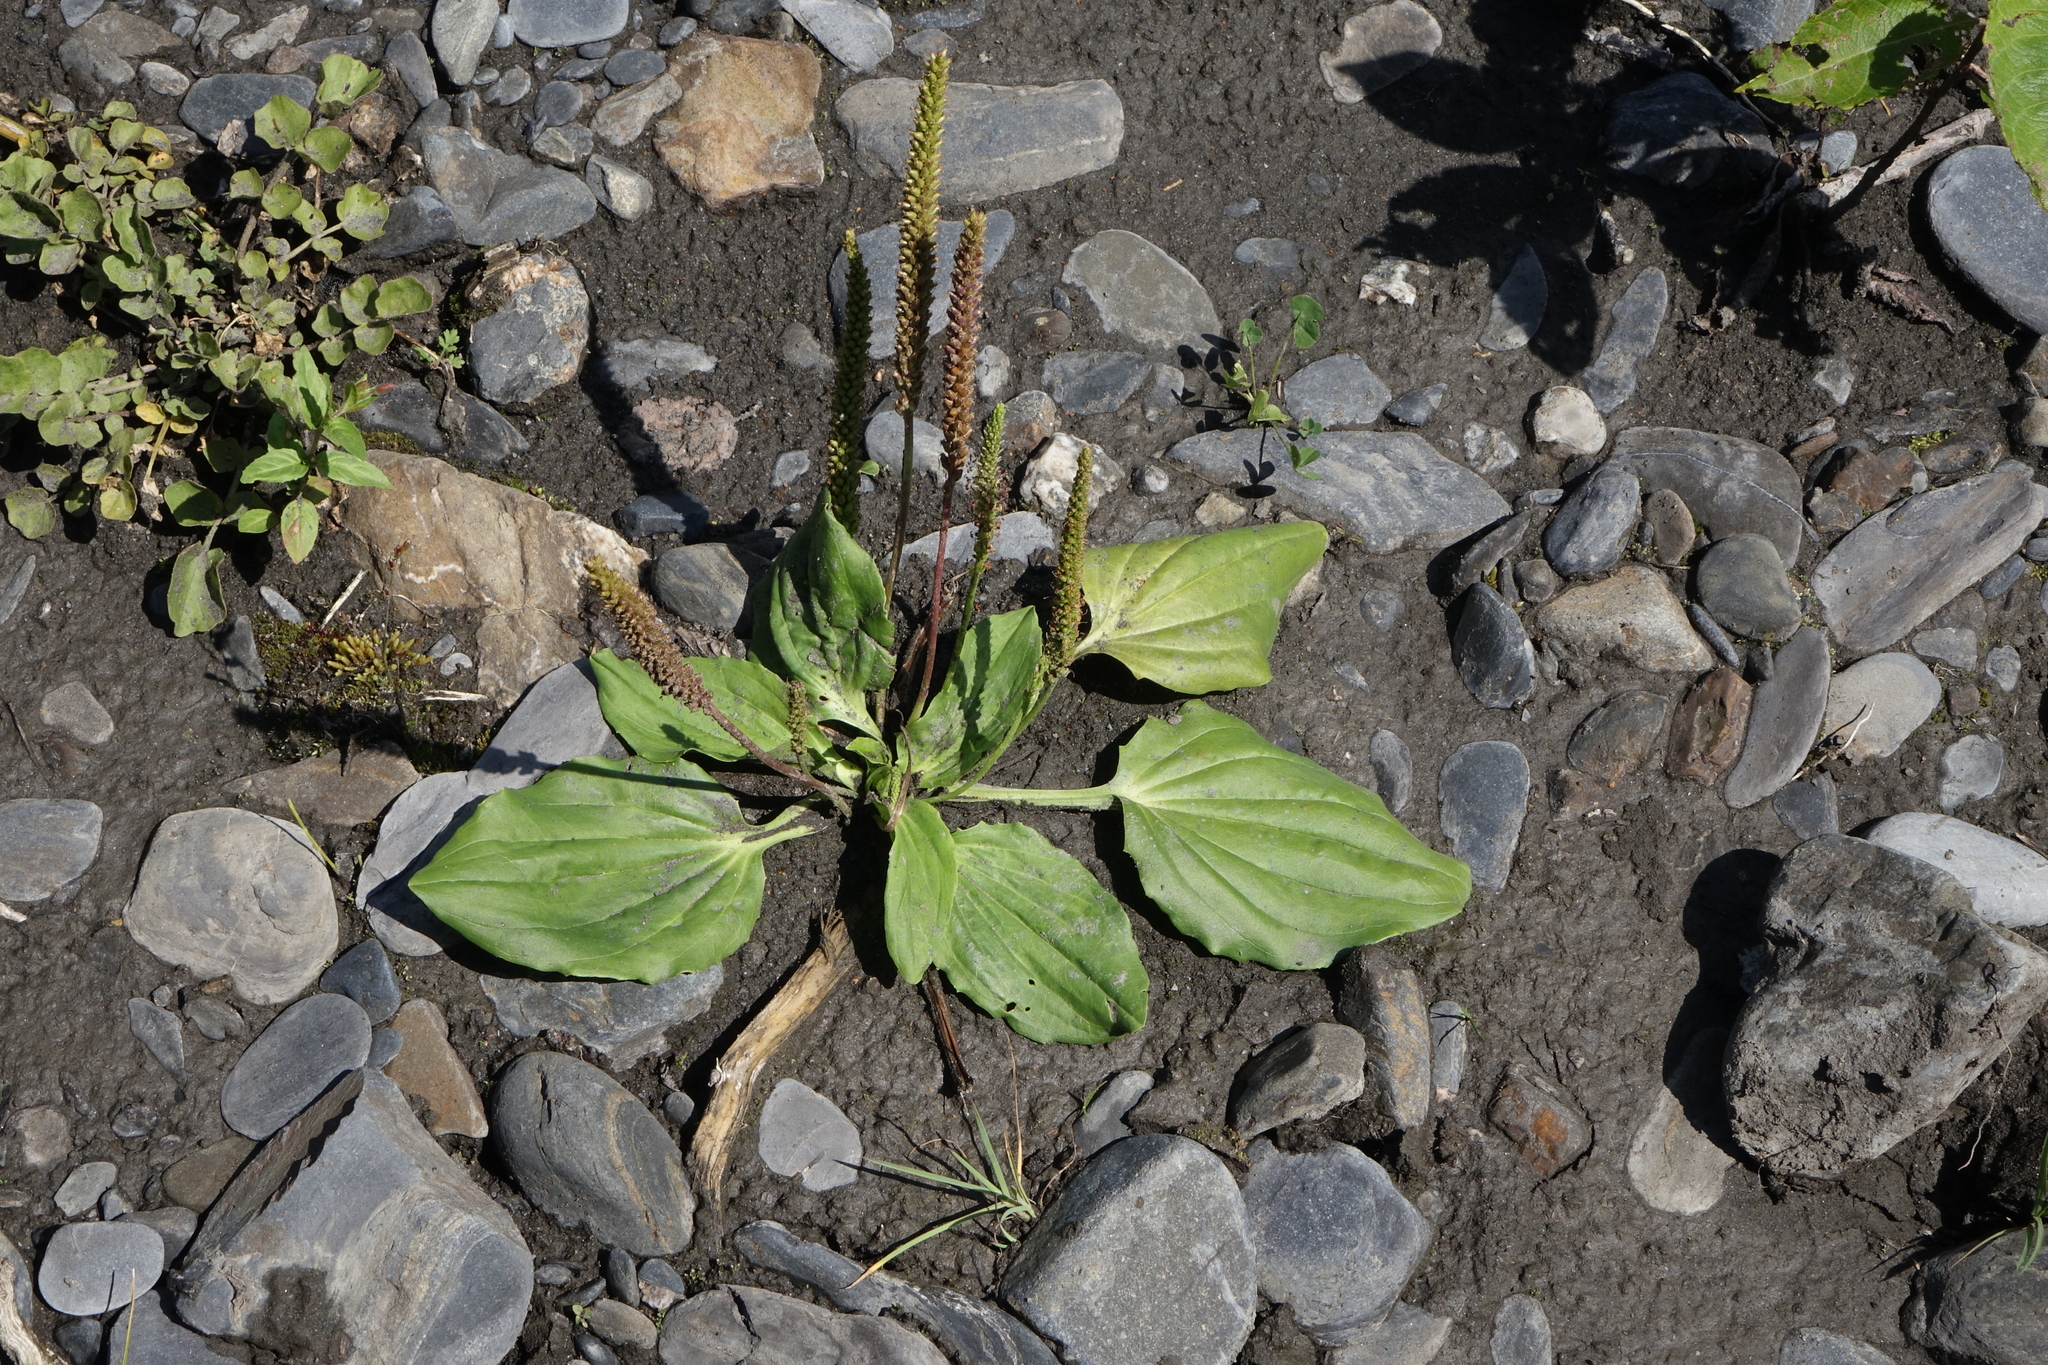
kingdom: Plantae
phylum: Tracheophyta
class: Magnoliopsida
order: Lamiales
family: Plantaginaceae
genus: Plantago
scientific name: Plantago major
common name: Common plantain
